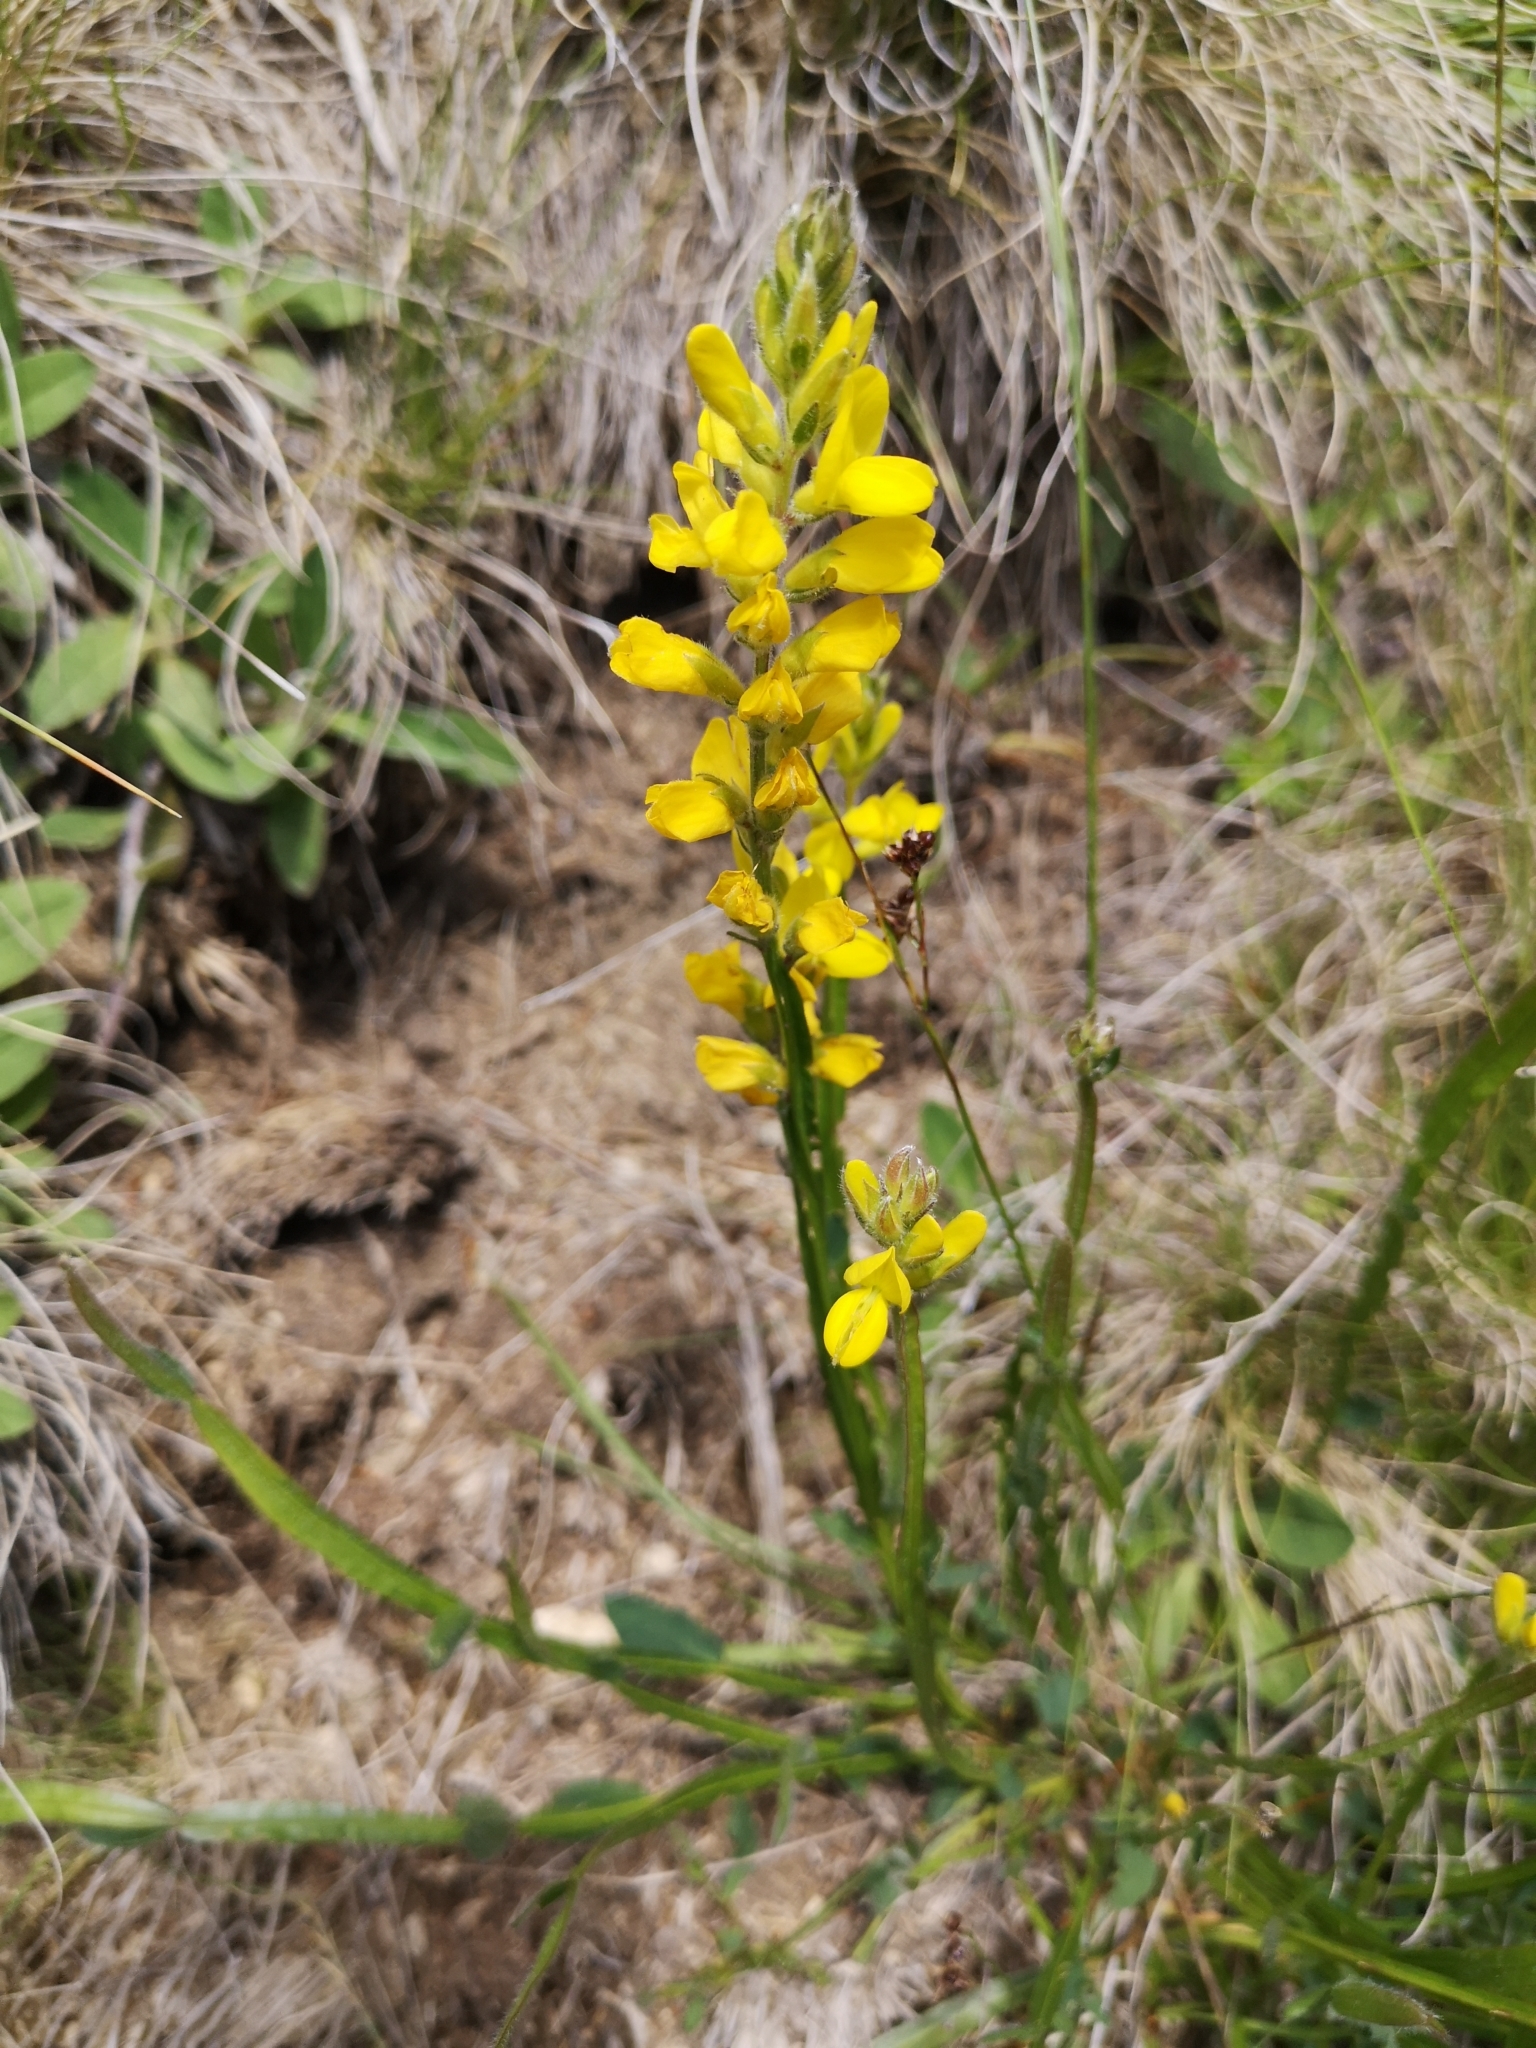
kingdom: Plantae
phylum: Tracheophyta
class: Magnoliopsida
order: Fabales
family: Fabaceae
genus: Genista
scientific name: Genista sagittalis
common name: Winged greenweed
